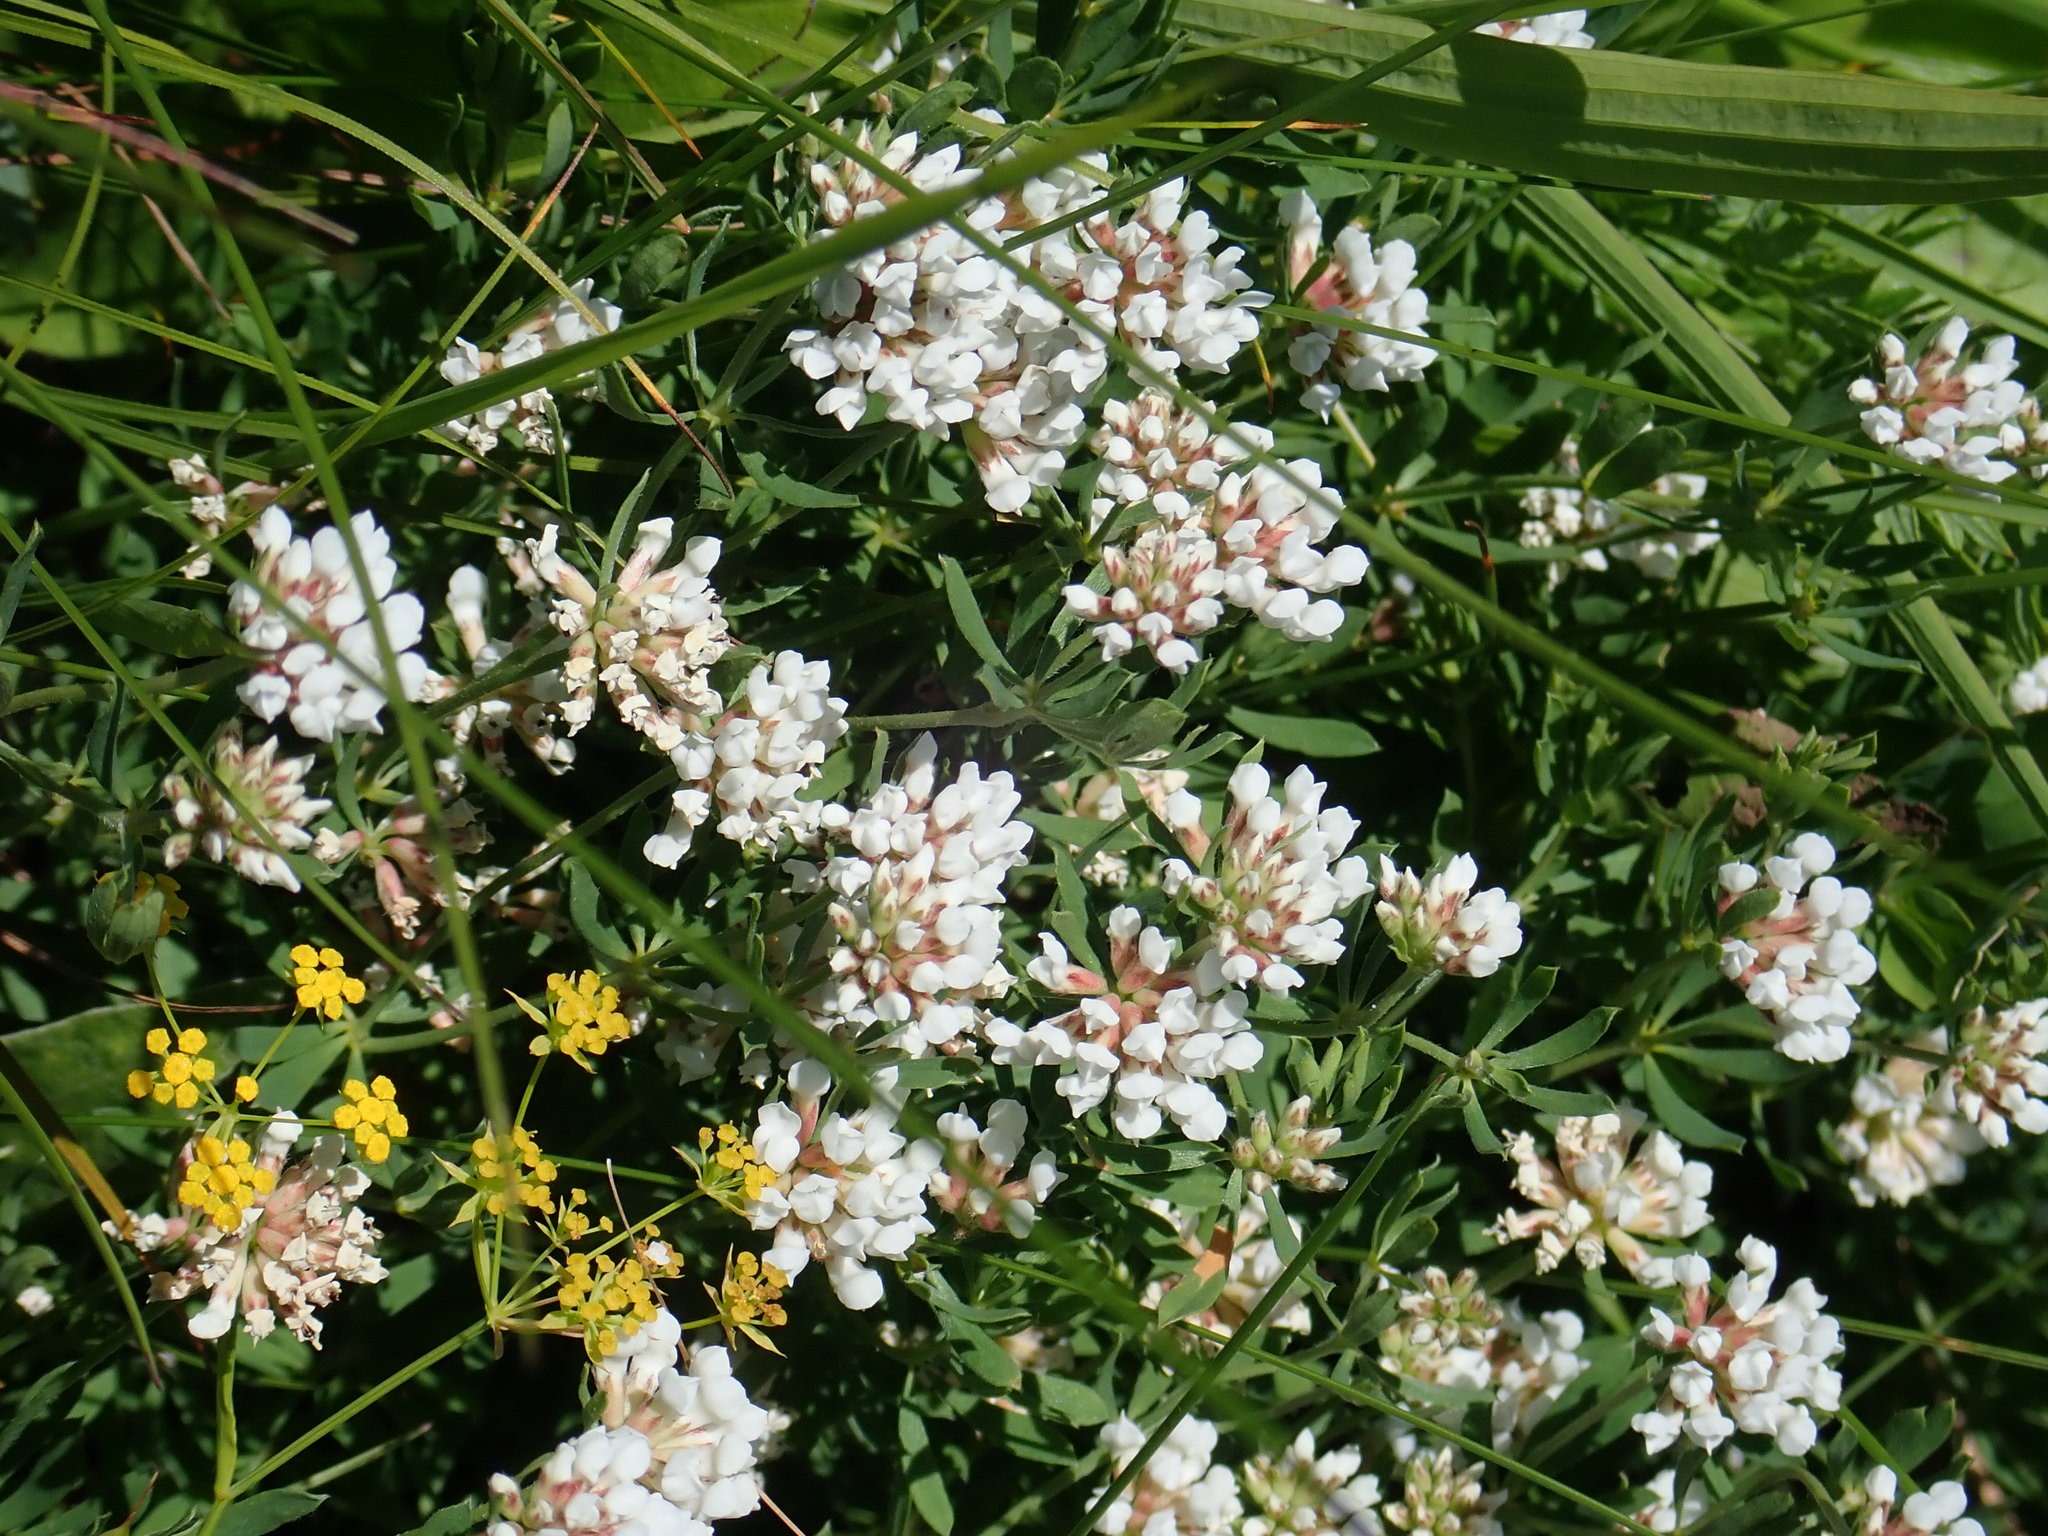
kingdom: Plantae
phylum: Tracheophyta
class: Magnoliopsida
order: Fabales
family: Fabaceae
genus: Lotus
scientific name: Lotus germanicus
